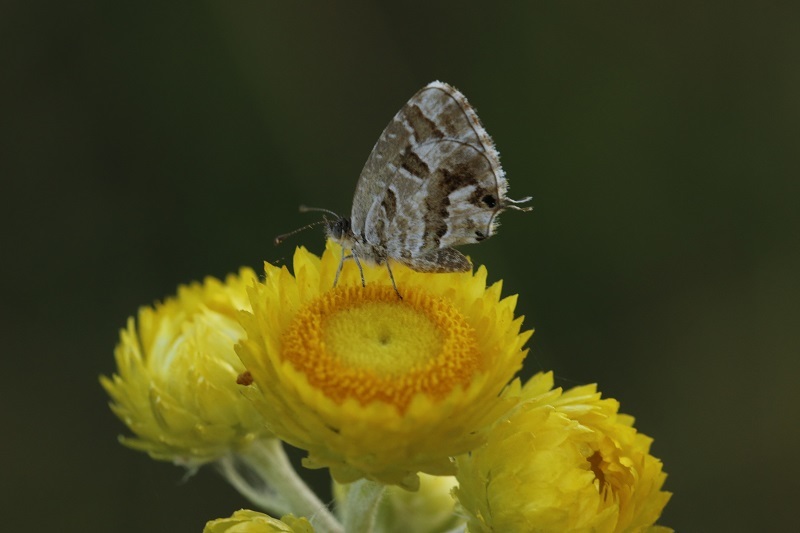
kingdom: Animalia
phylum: Arthropoda
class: Insecta
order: Lepidoptera
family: Lycaenidae
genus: Cacyreus
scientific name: Cacyreus
